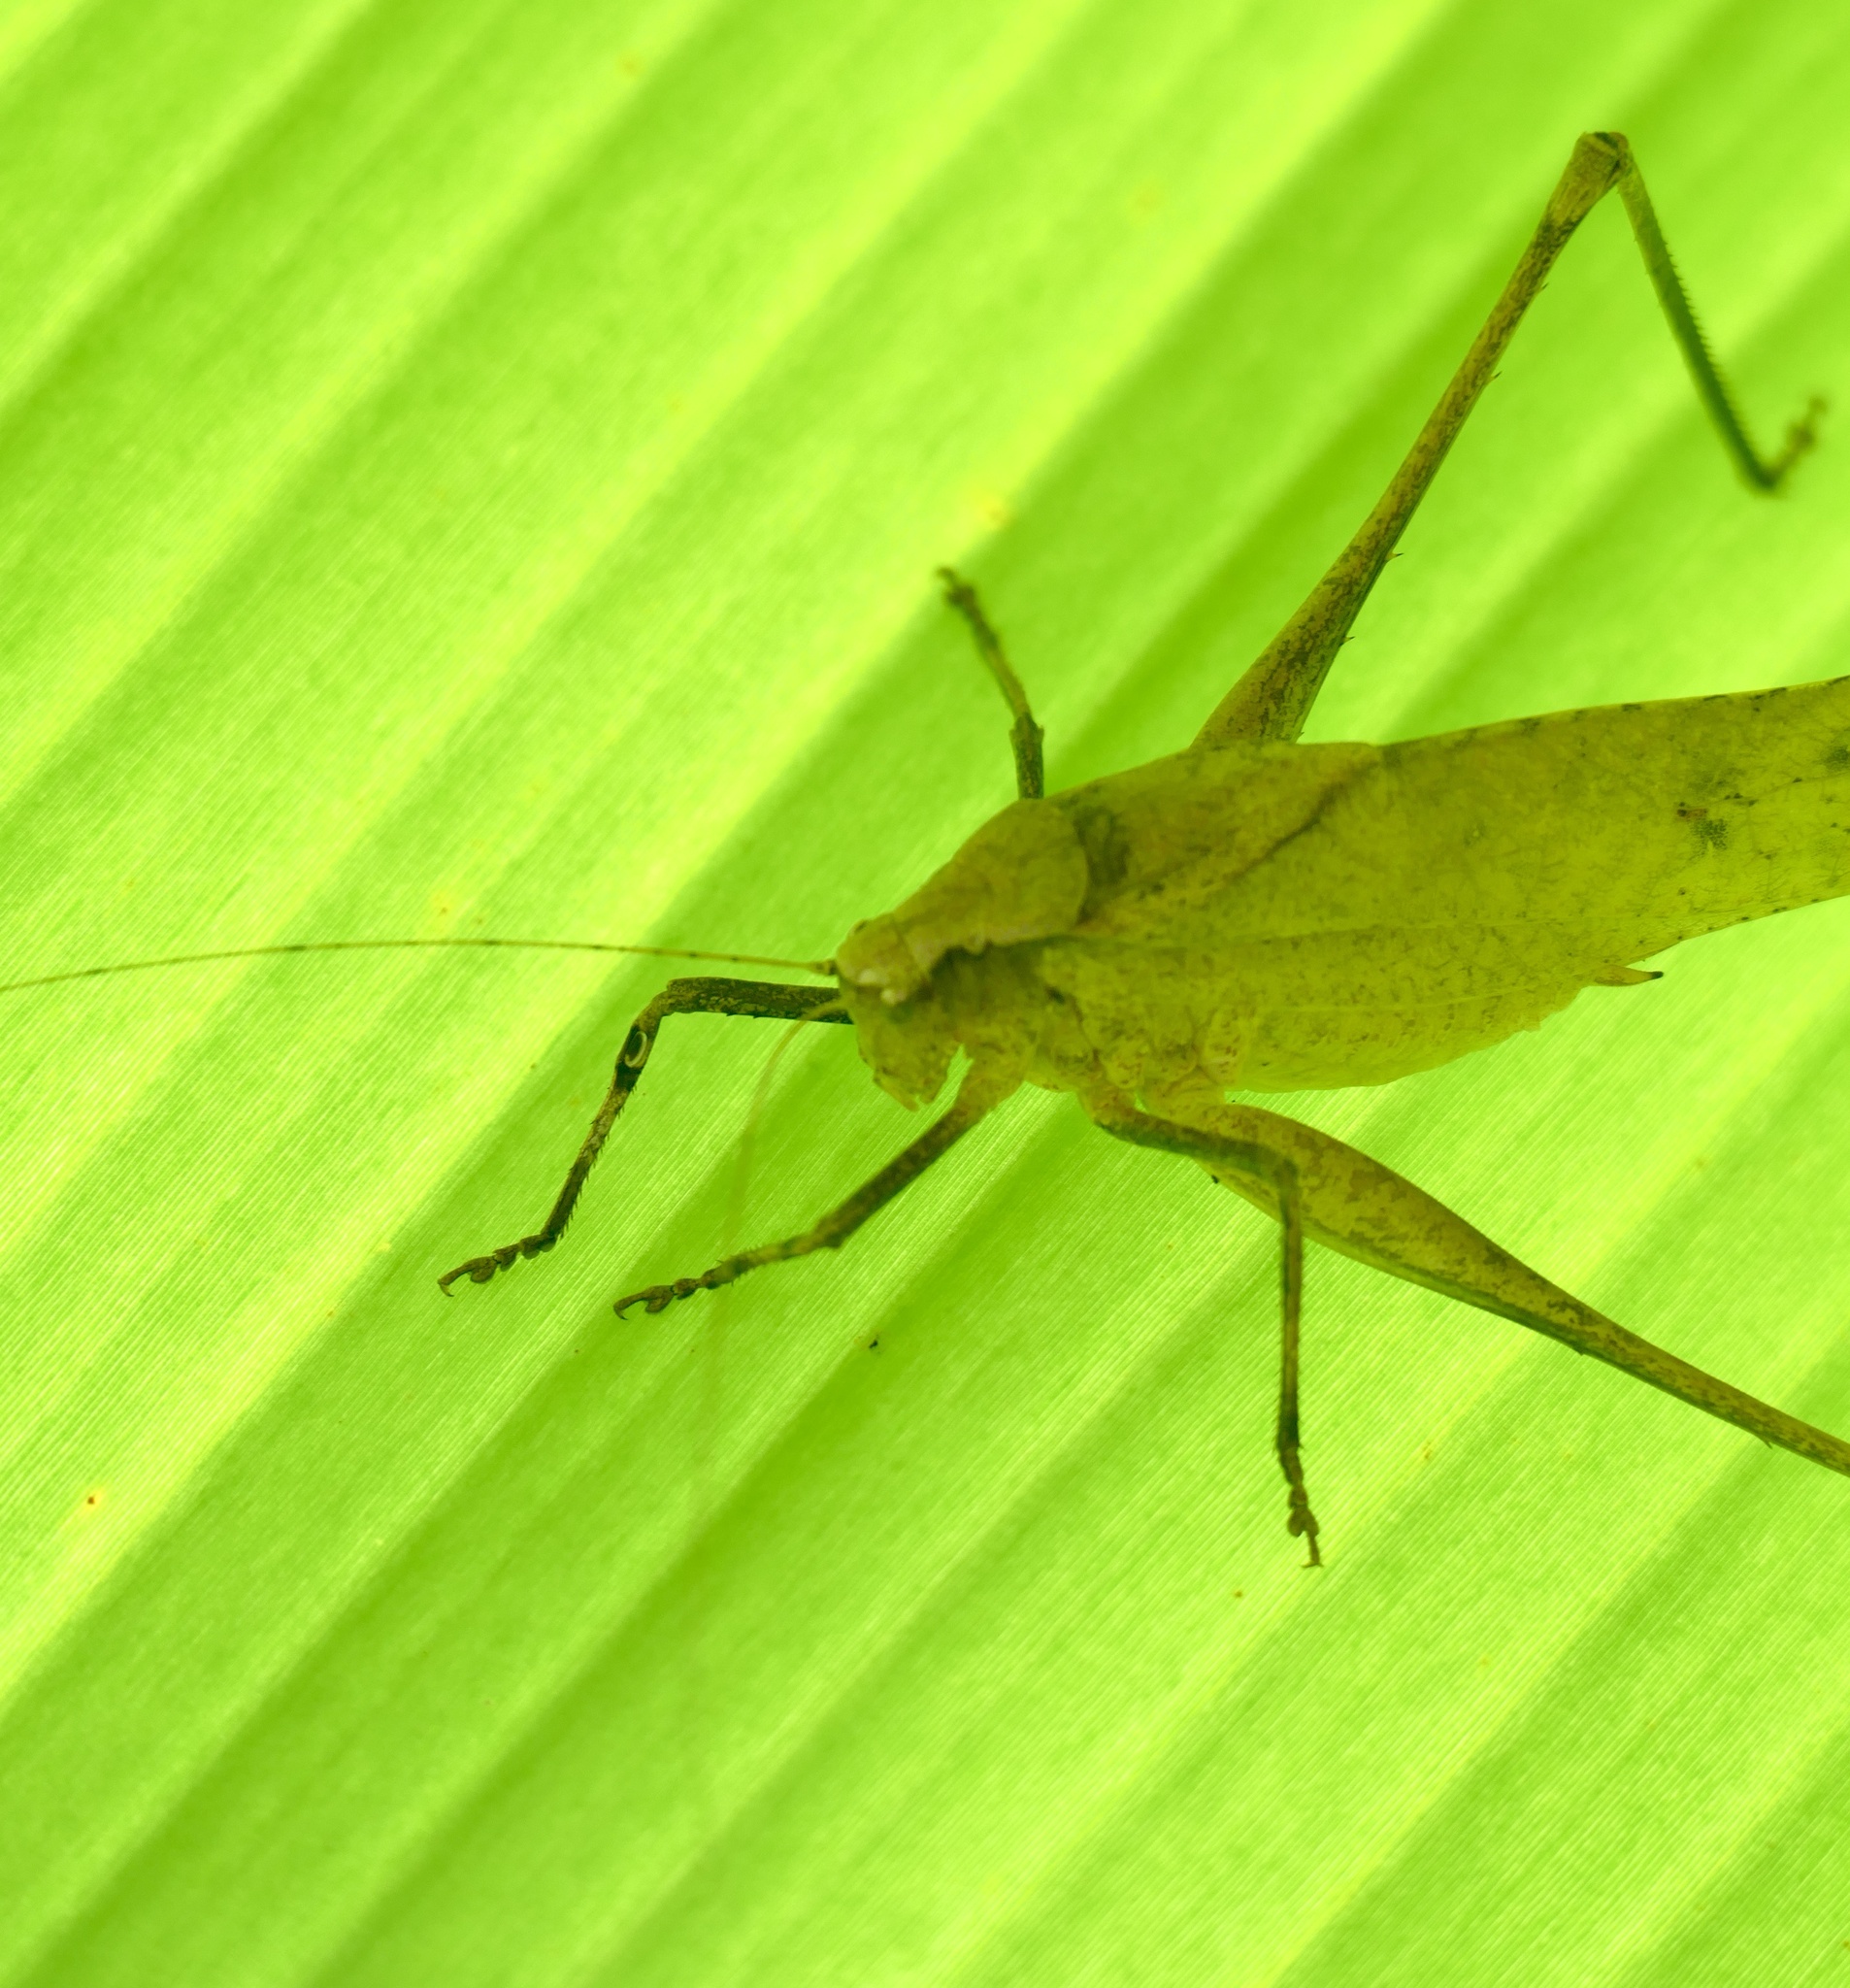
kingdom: Animalia
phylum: Arthropoda
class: Insecta
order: Orthoptera
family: Tettigoniidae
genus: Mecopoda
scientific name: Mecopoda elongata
